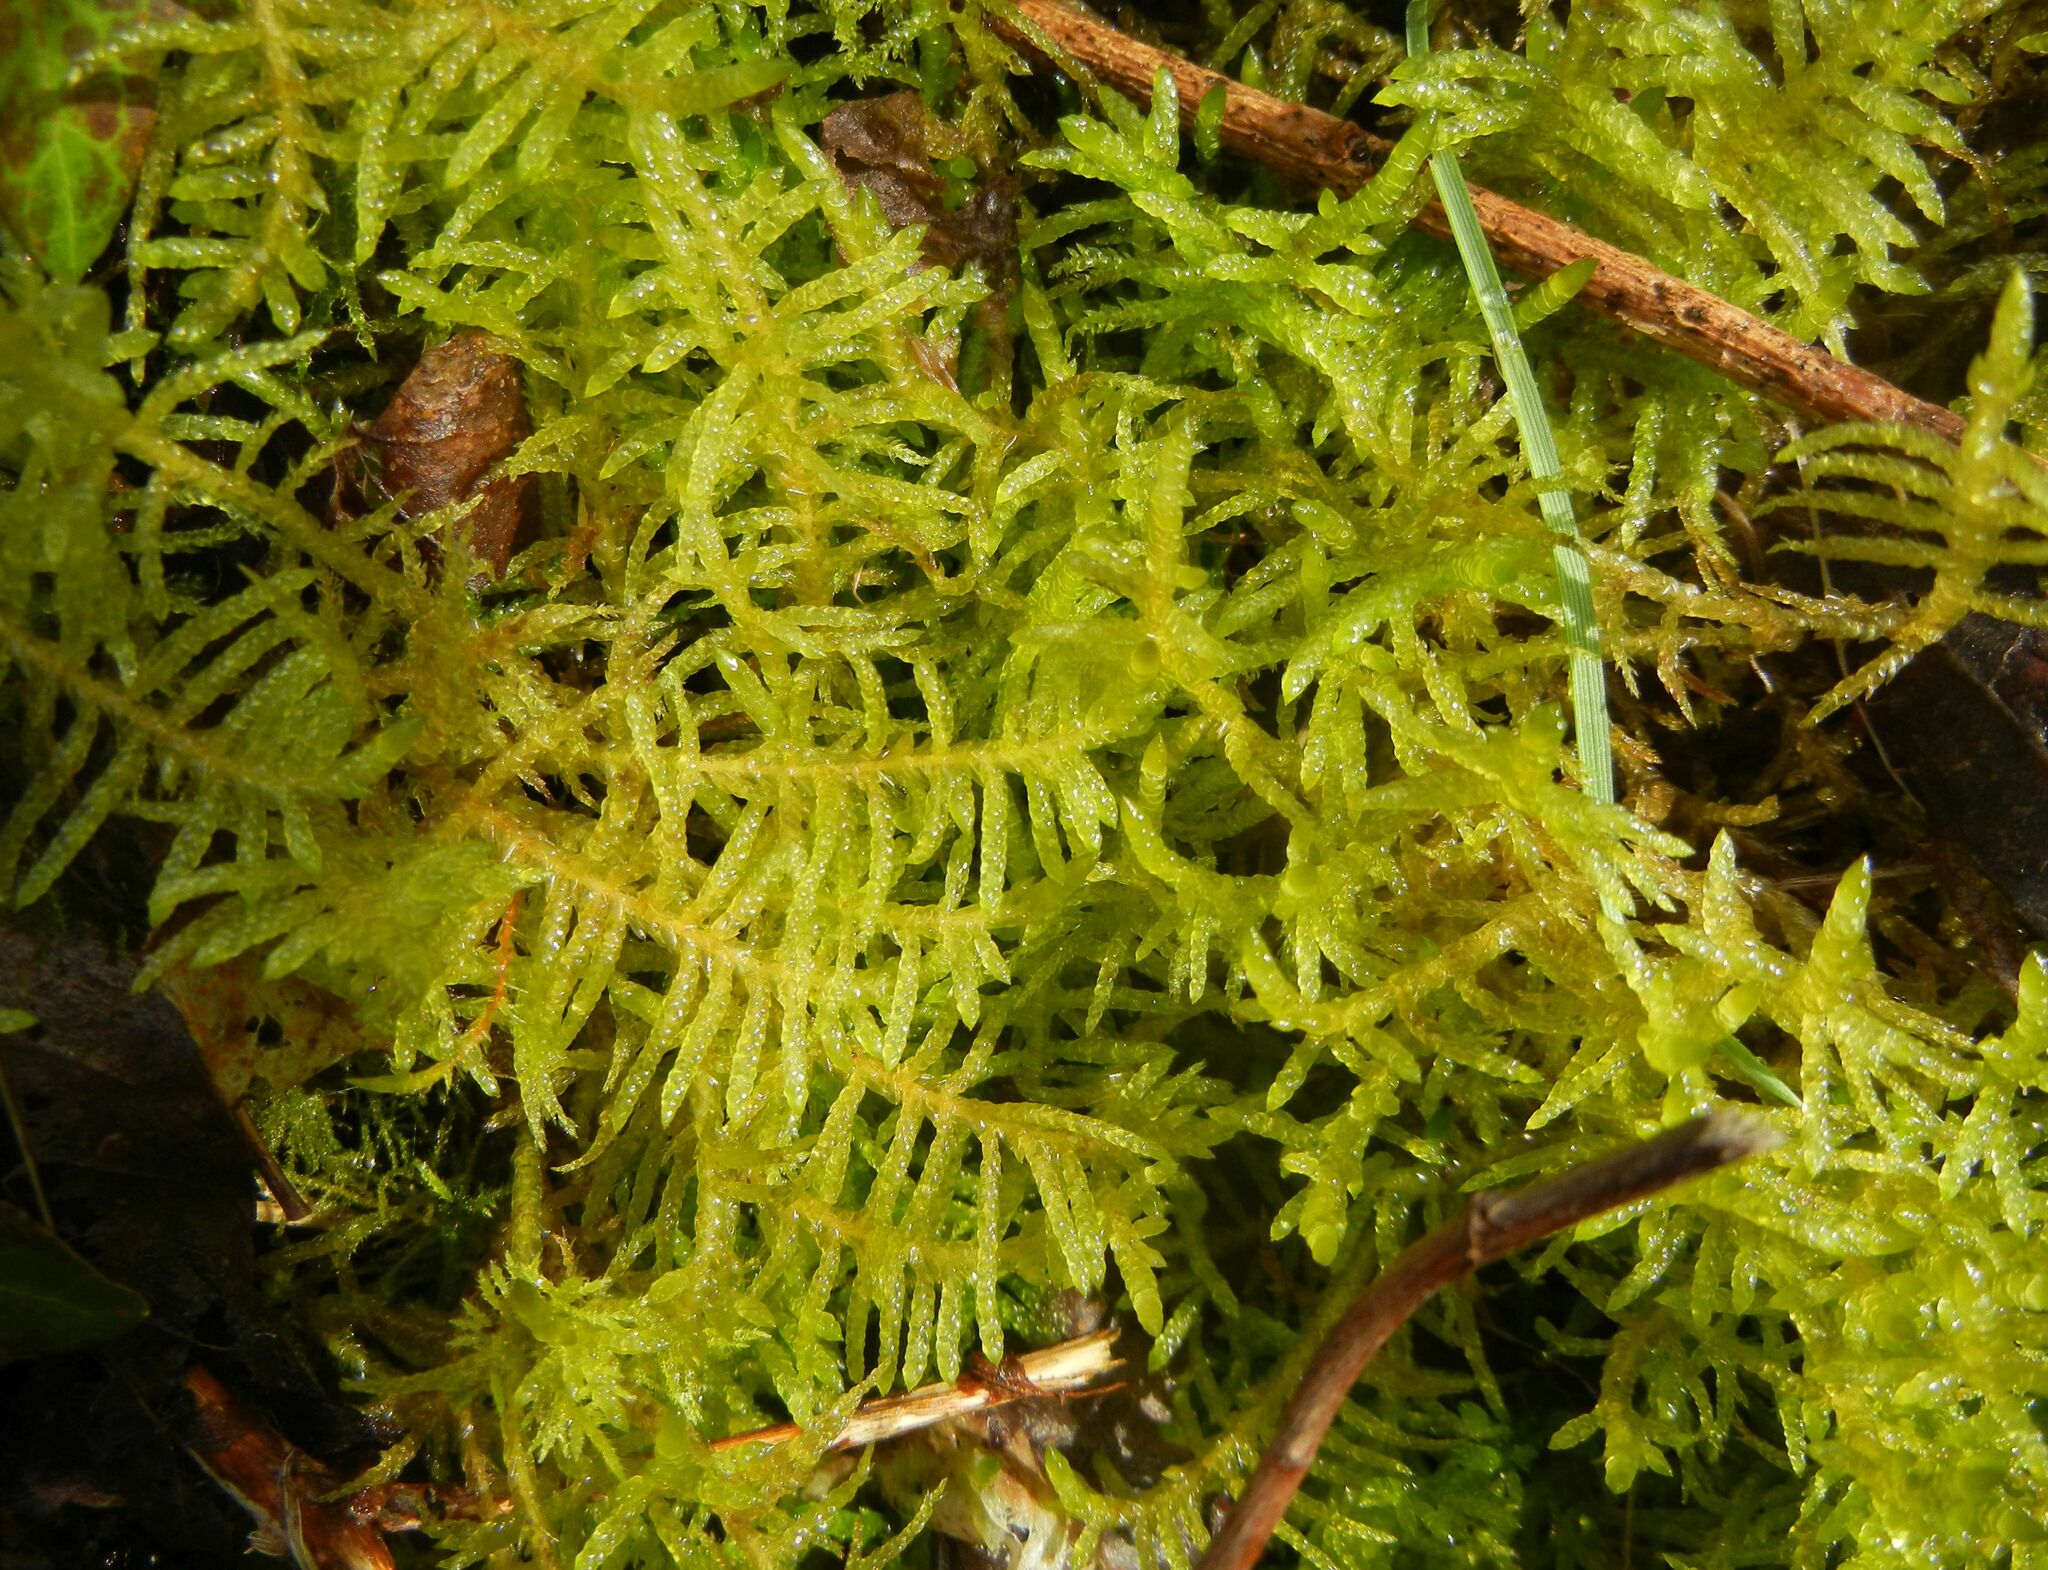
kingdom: Plantae
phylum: Bryophyta
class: Bryopsida
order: Hypnales
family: Brachytheciaceae
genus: Pseudoscleropodium
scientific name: Pseudoscleropodium purum
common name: Neat feather-moss
